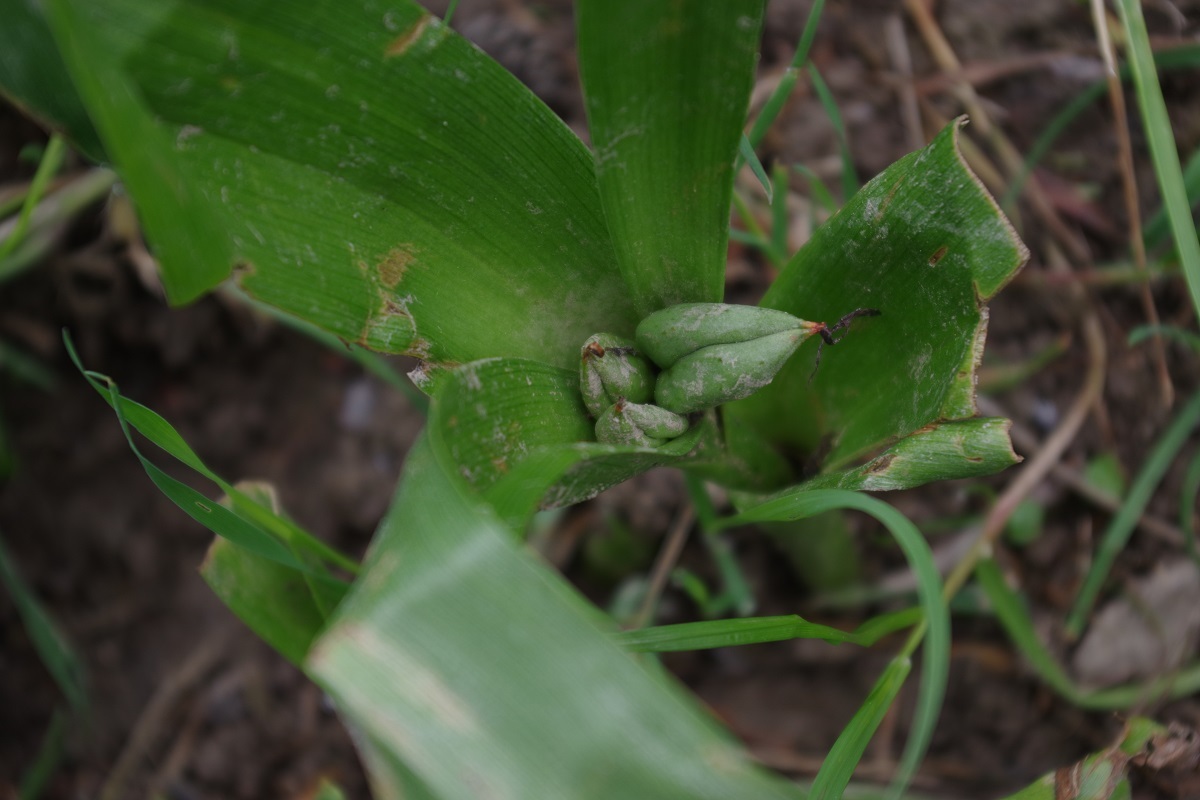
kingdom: Plantae
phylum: Tracheophyta
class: Liliopsida
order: Liliales
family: Colchicaceae
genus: Colchicum
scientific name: Colchicum autumnale
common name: Autumn crocus
